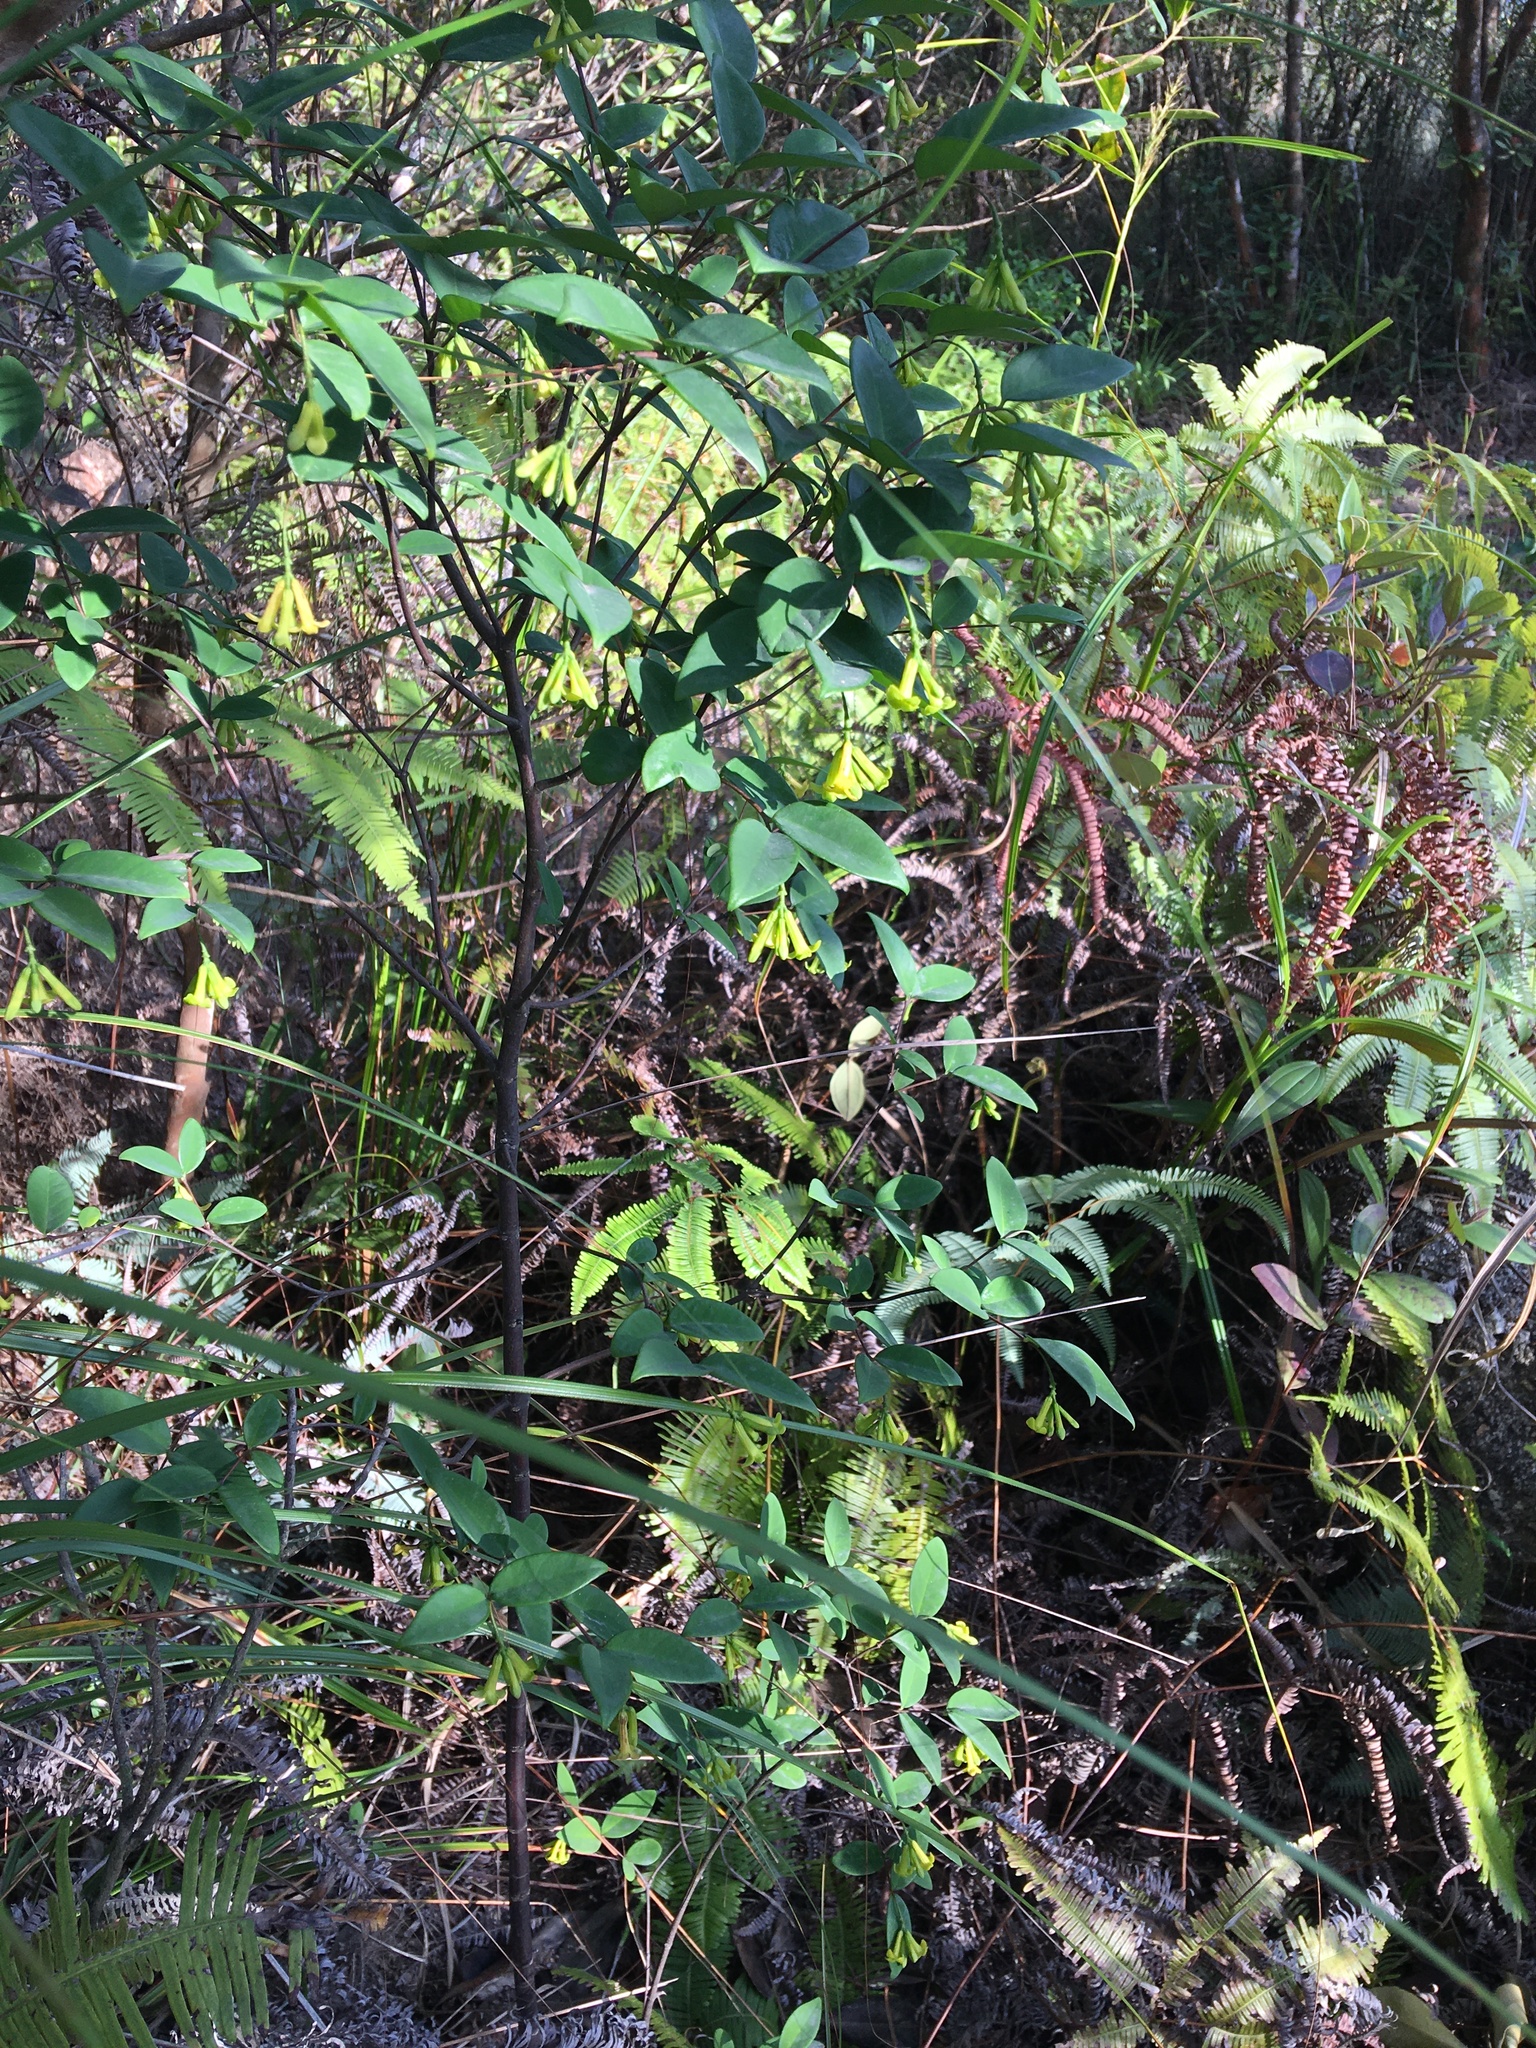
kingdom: Plantae
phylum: Tracheophyta
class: Magnoliopsida
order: Malvales
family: Thymelaeaceae
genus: Wikstroemia
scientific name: Wikstroemia nutans
